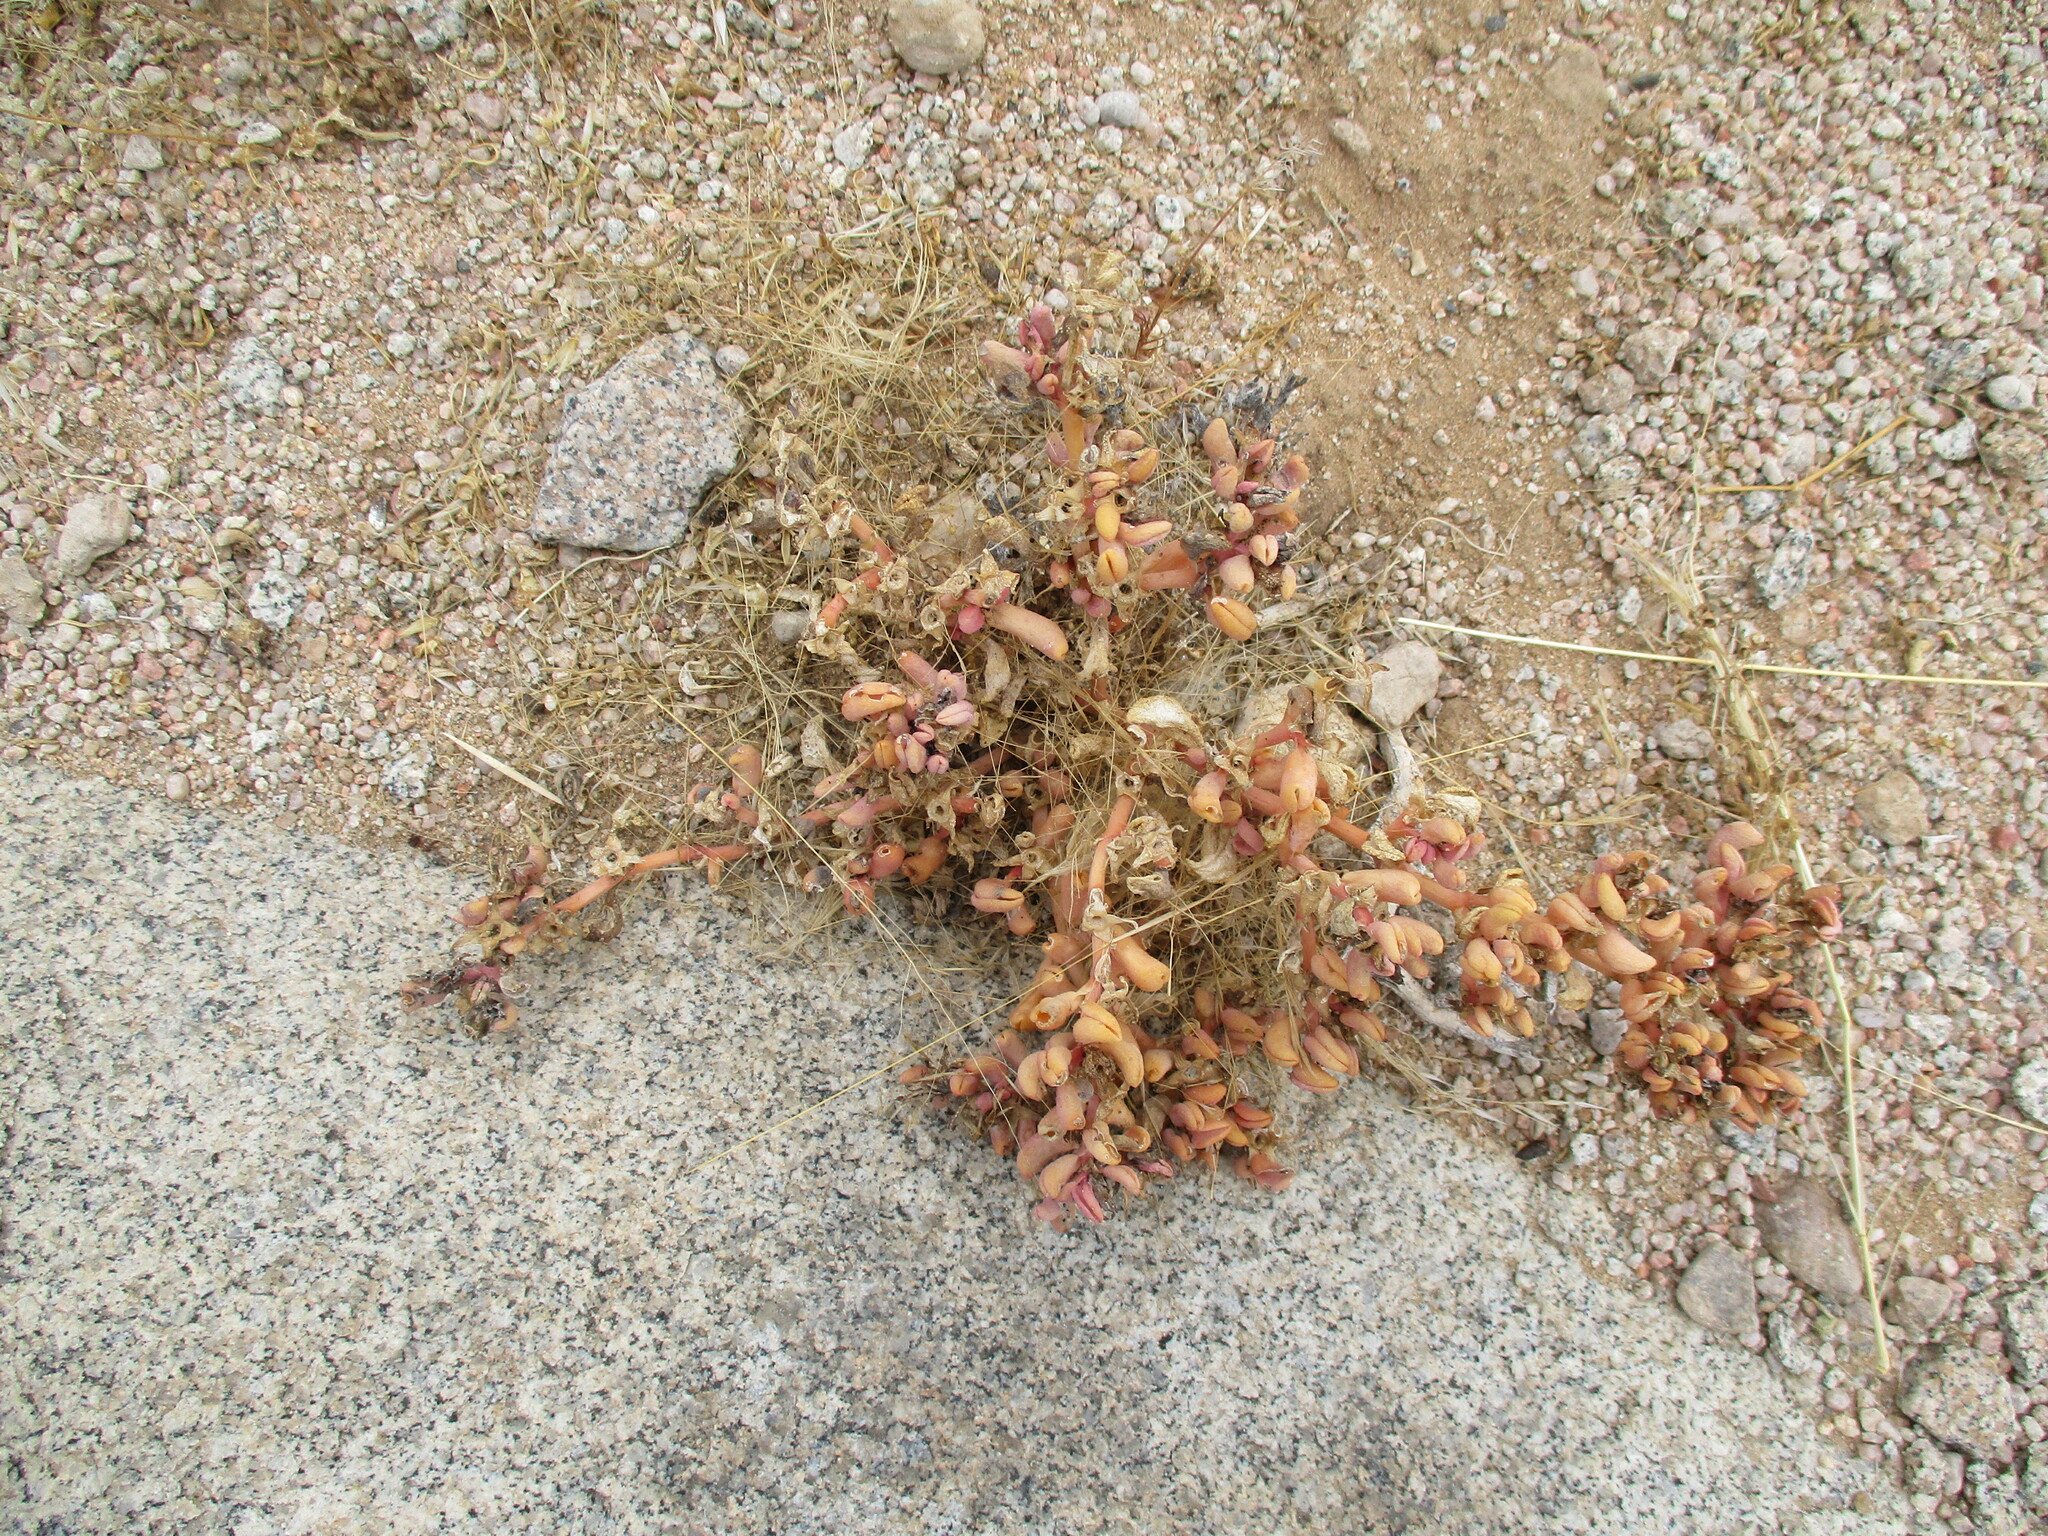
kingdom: Plantae
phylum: Tracheophyta
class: Magnoliopsida
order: Caryophyllales
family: Aizoaceae
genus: Sesuvium
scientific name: Sesuvium sesuvioides
